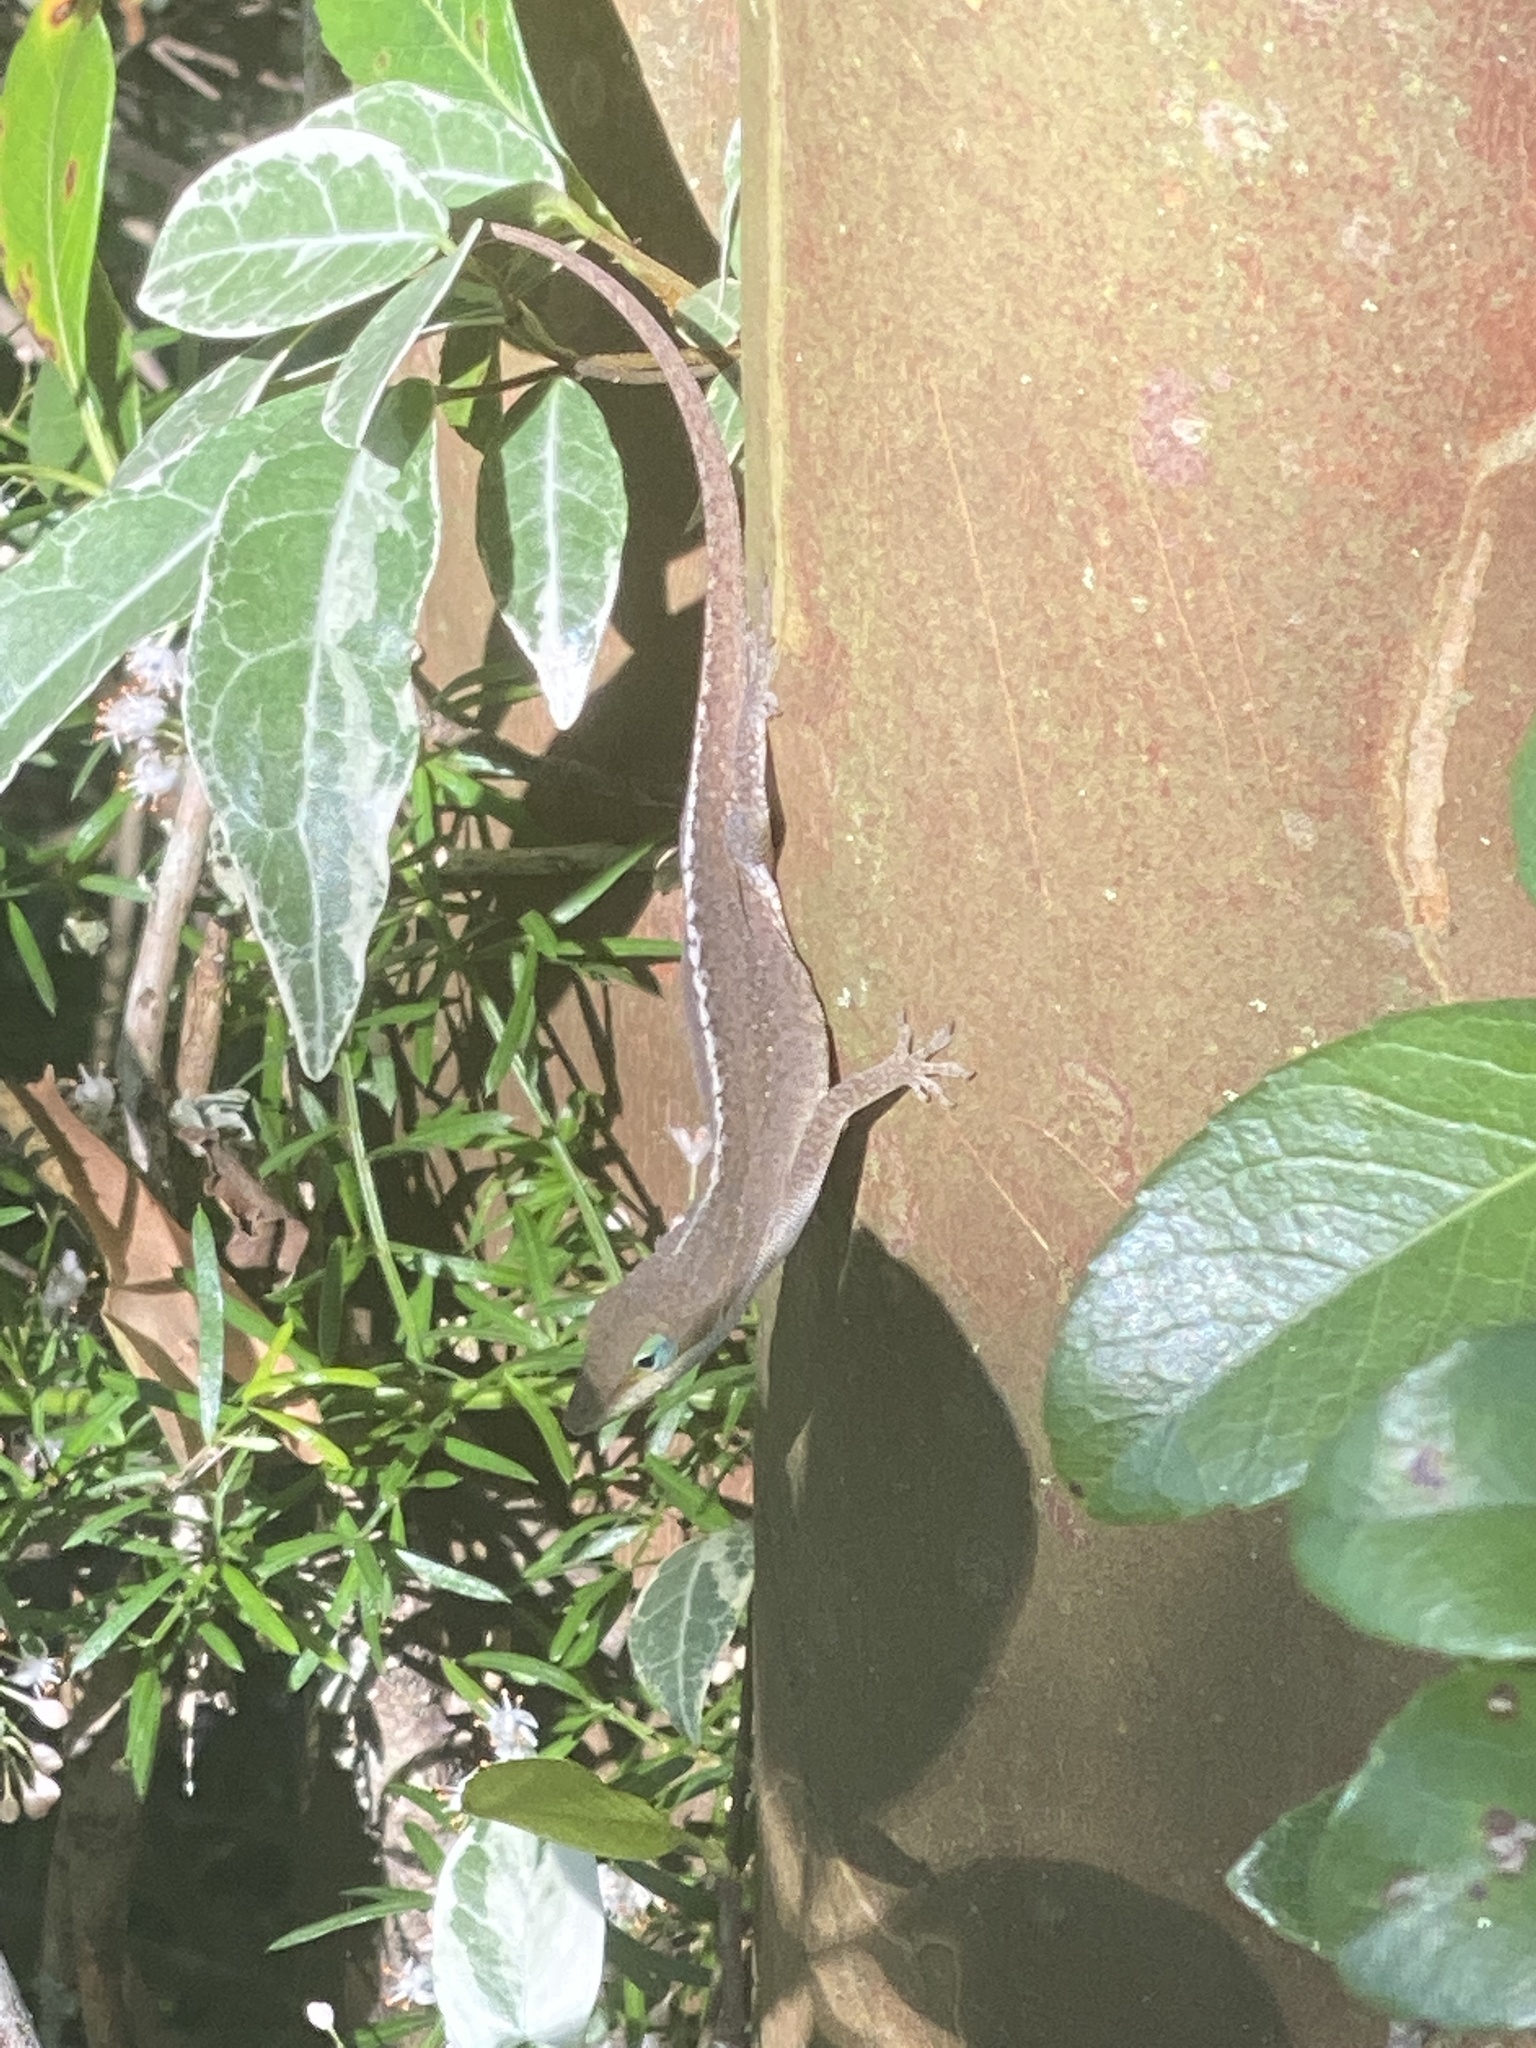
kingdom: Animalia
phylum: Chordata
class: Squamata
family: Dactyloidae
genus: Anolis
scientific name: Anolis carolinensis
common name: Green anole
